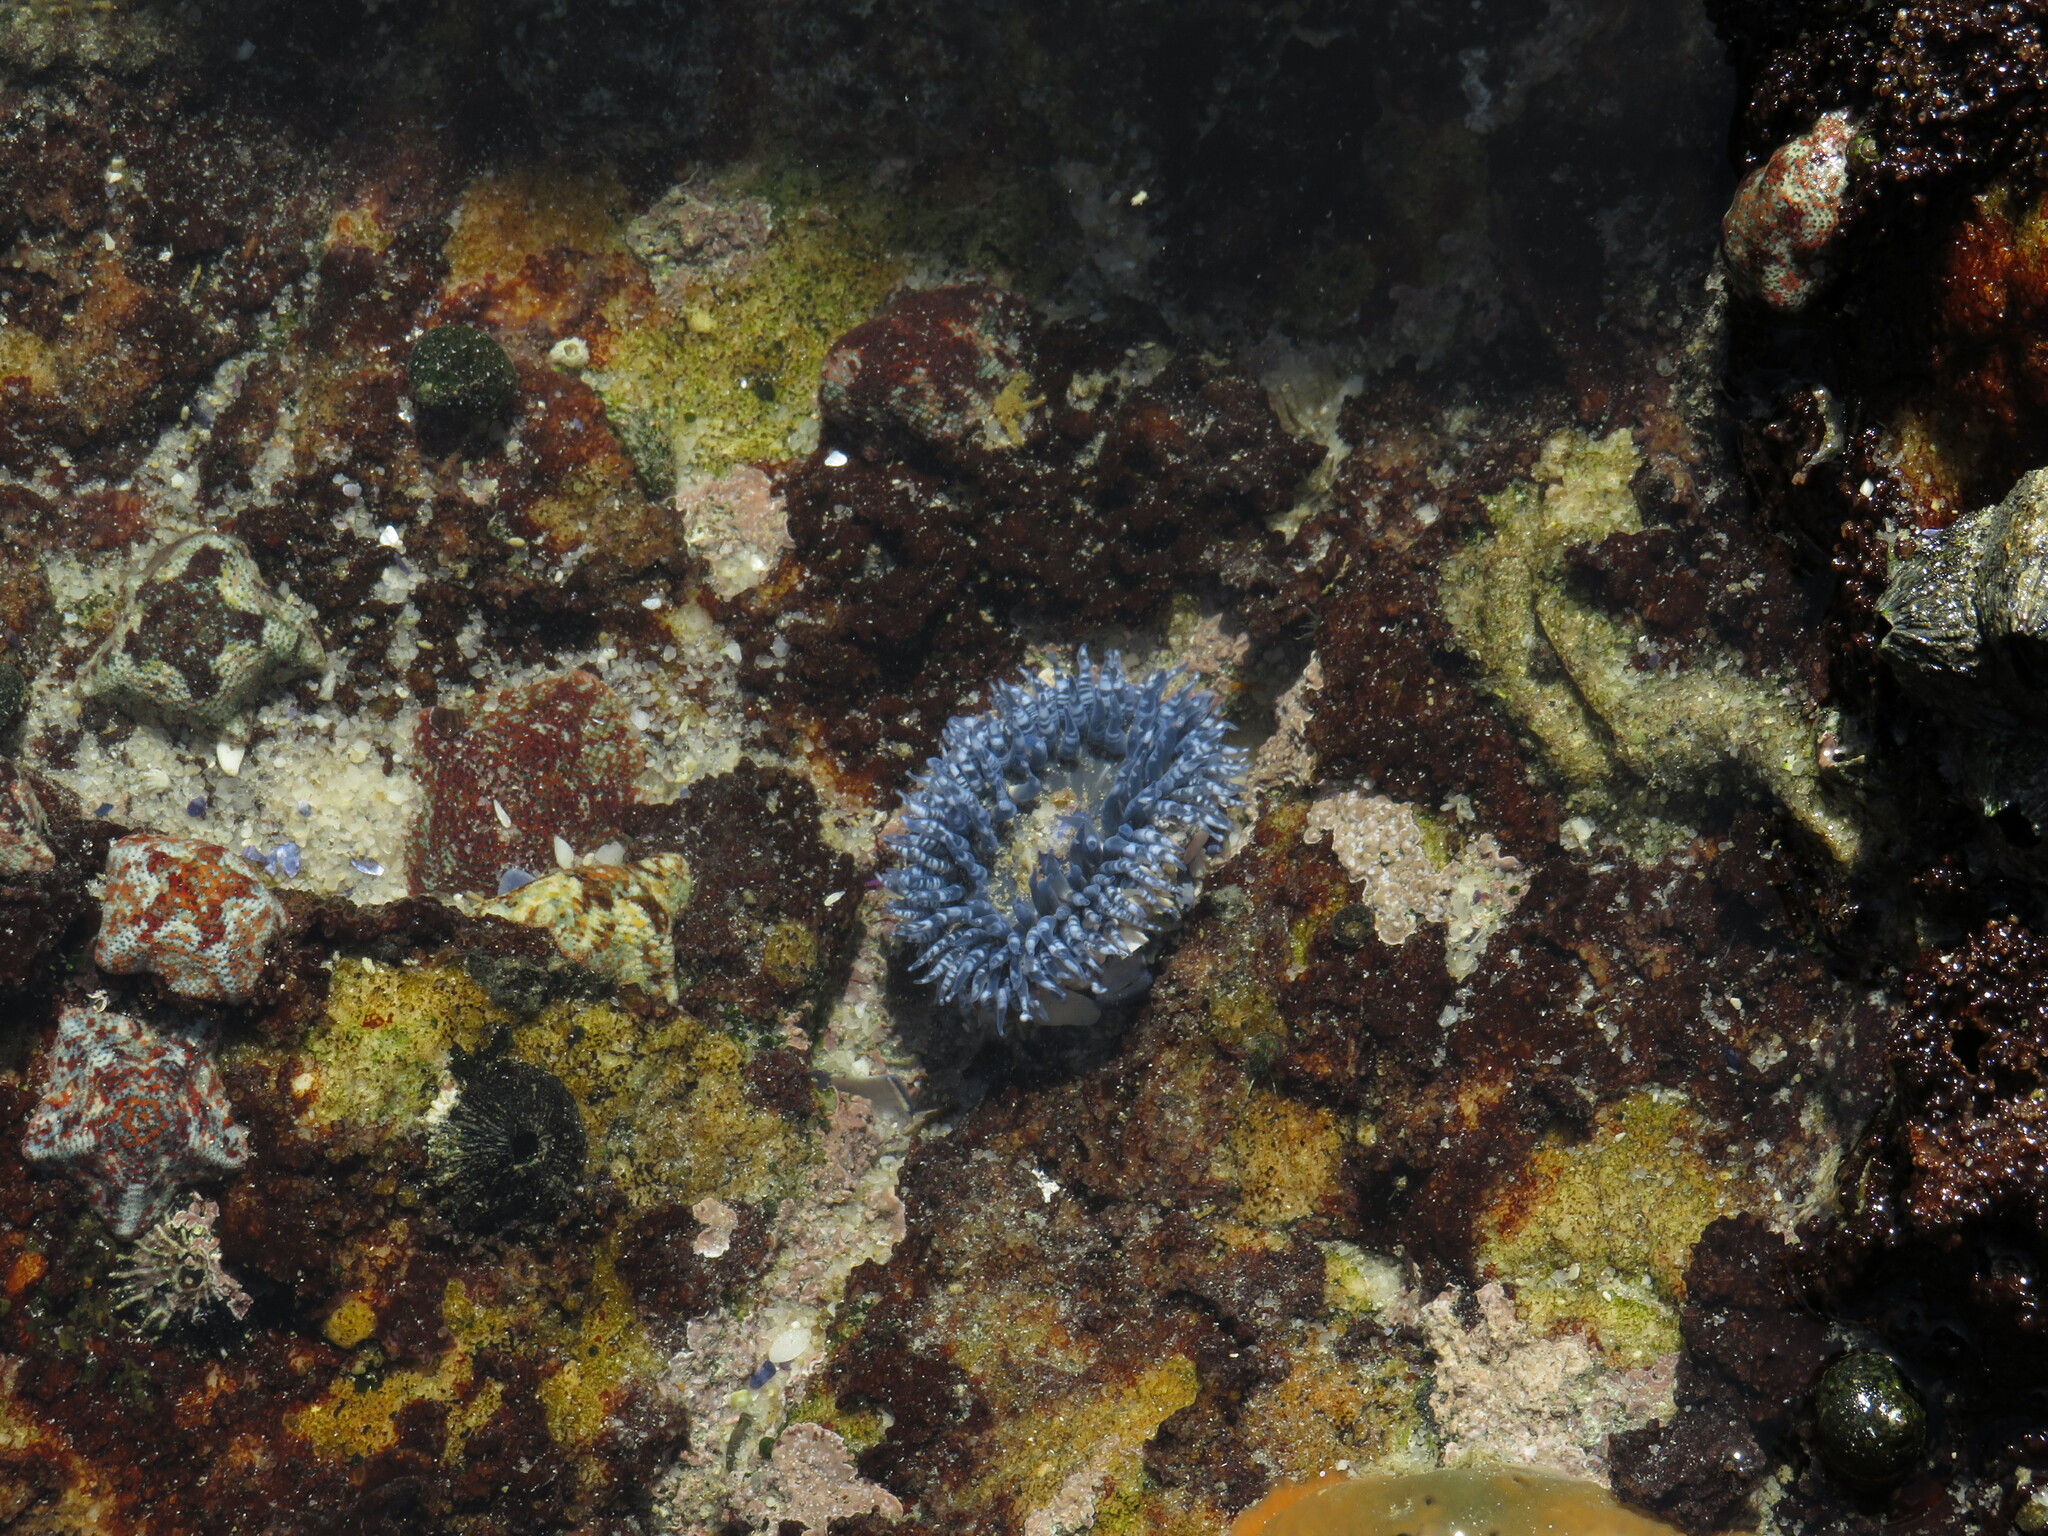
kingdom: Animalia
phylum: Cnidaria
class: Anthozoa
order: Actiniaria
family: Actiniidae
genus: Bunodactis
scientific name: Bunodactis reynaudi
